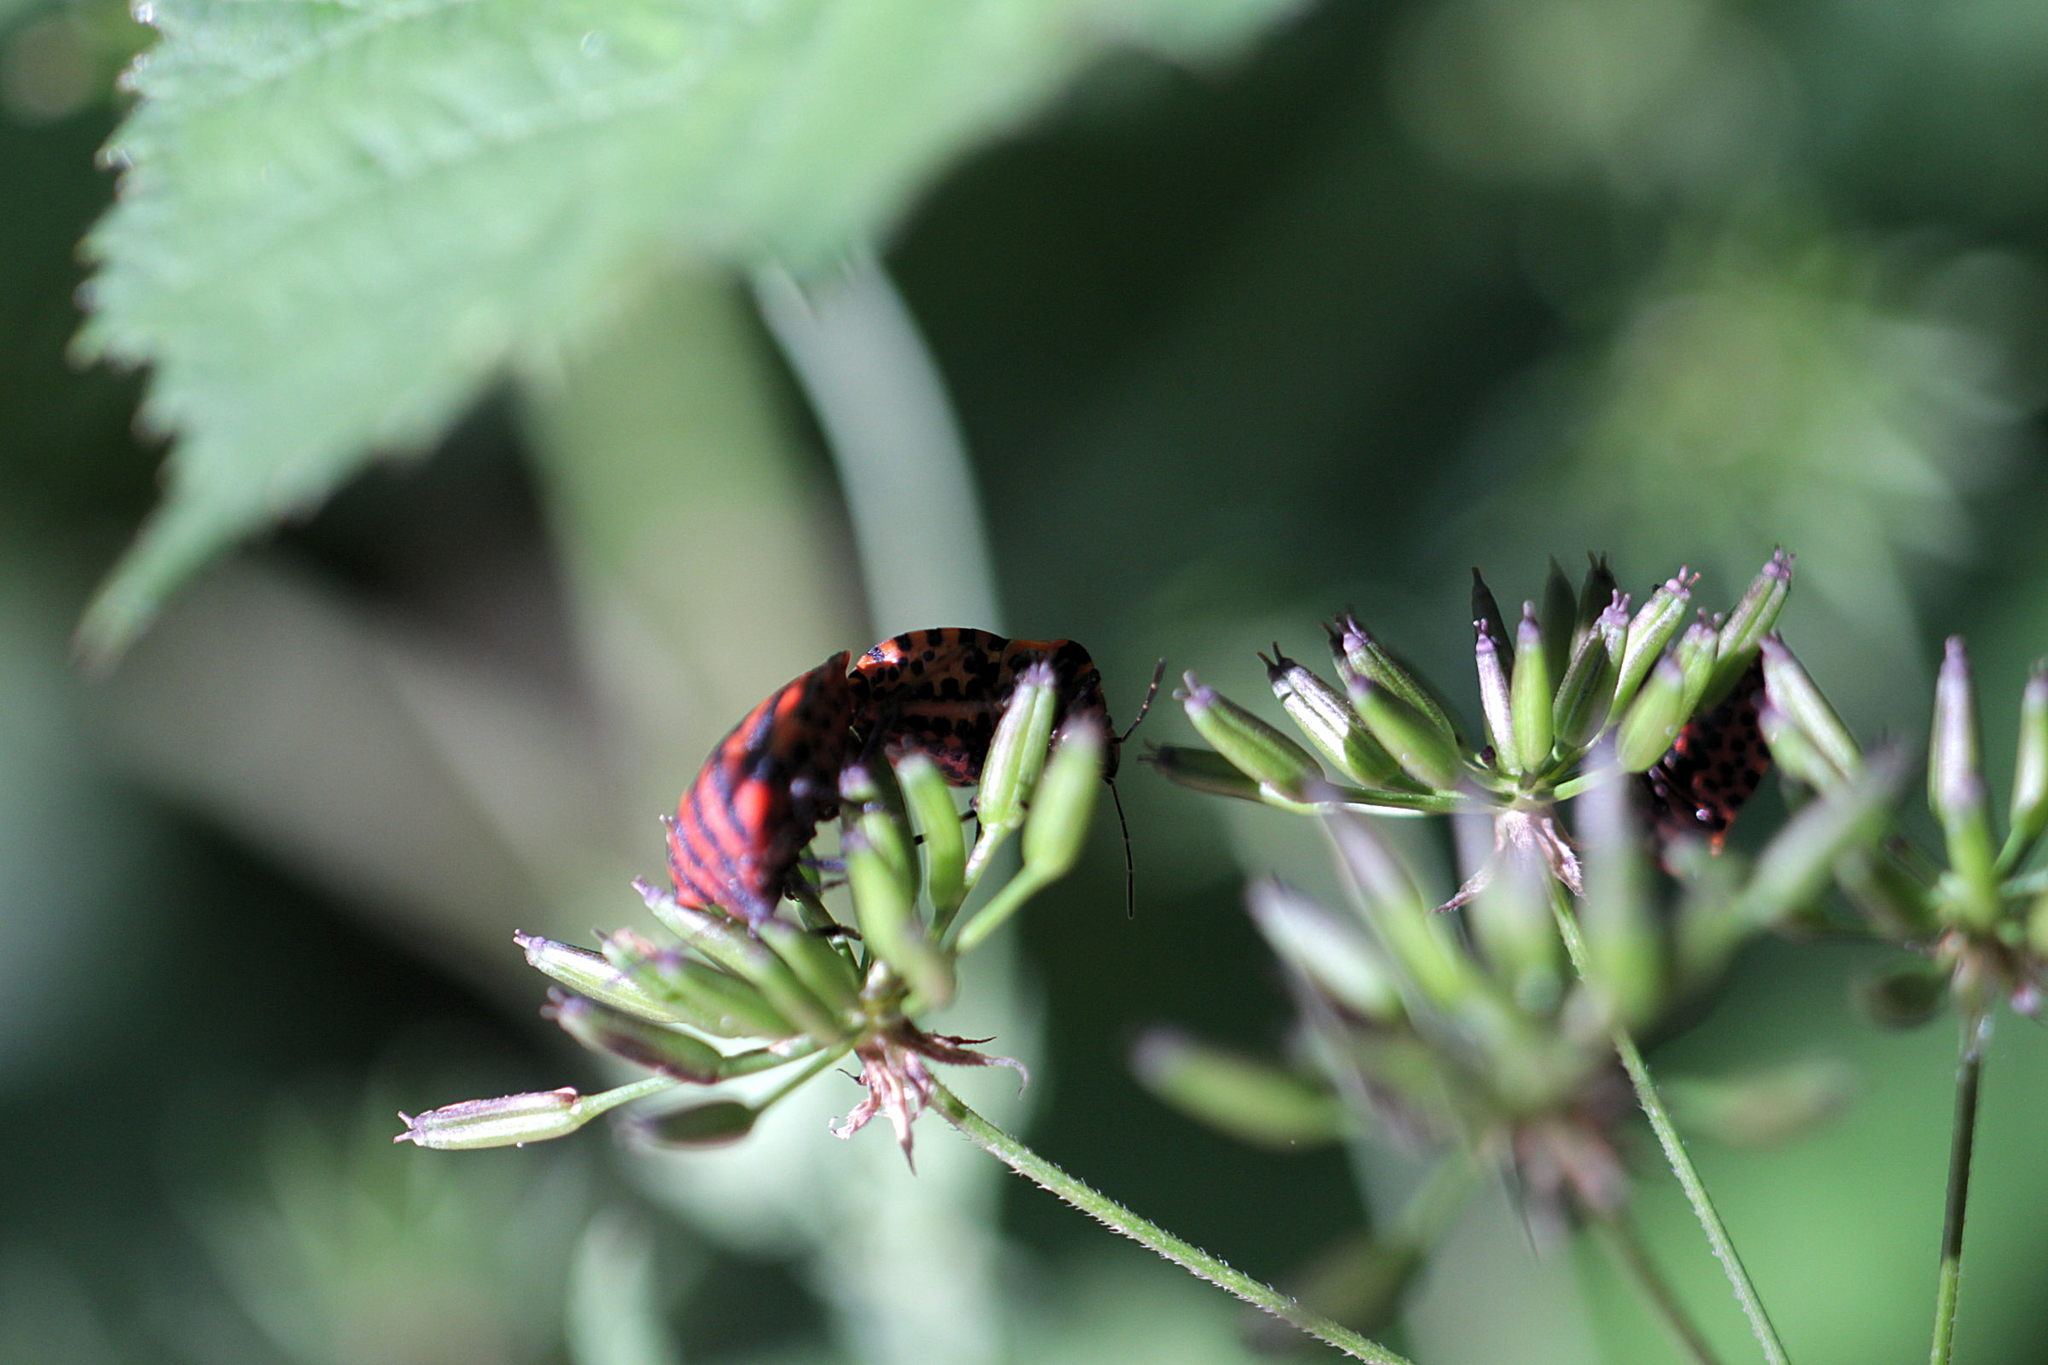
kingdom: Animalia
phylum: Arthropoda
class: Insecta
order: Hemiptera
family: Pentatomidae
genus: Graphosoma
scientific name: Graphosoma italicum
